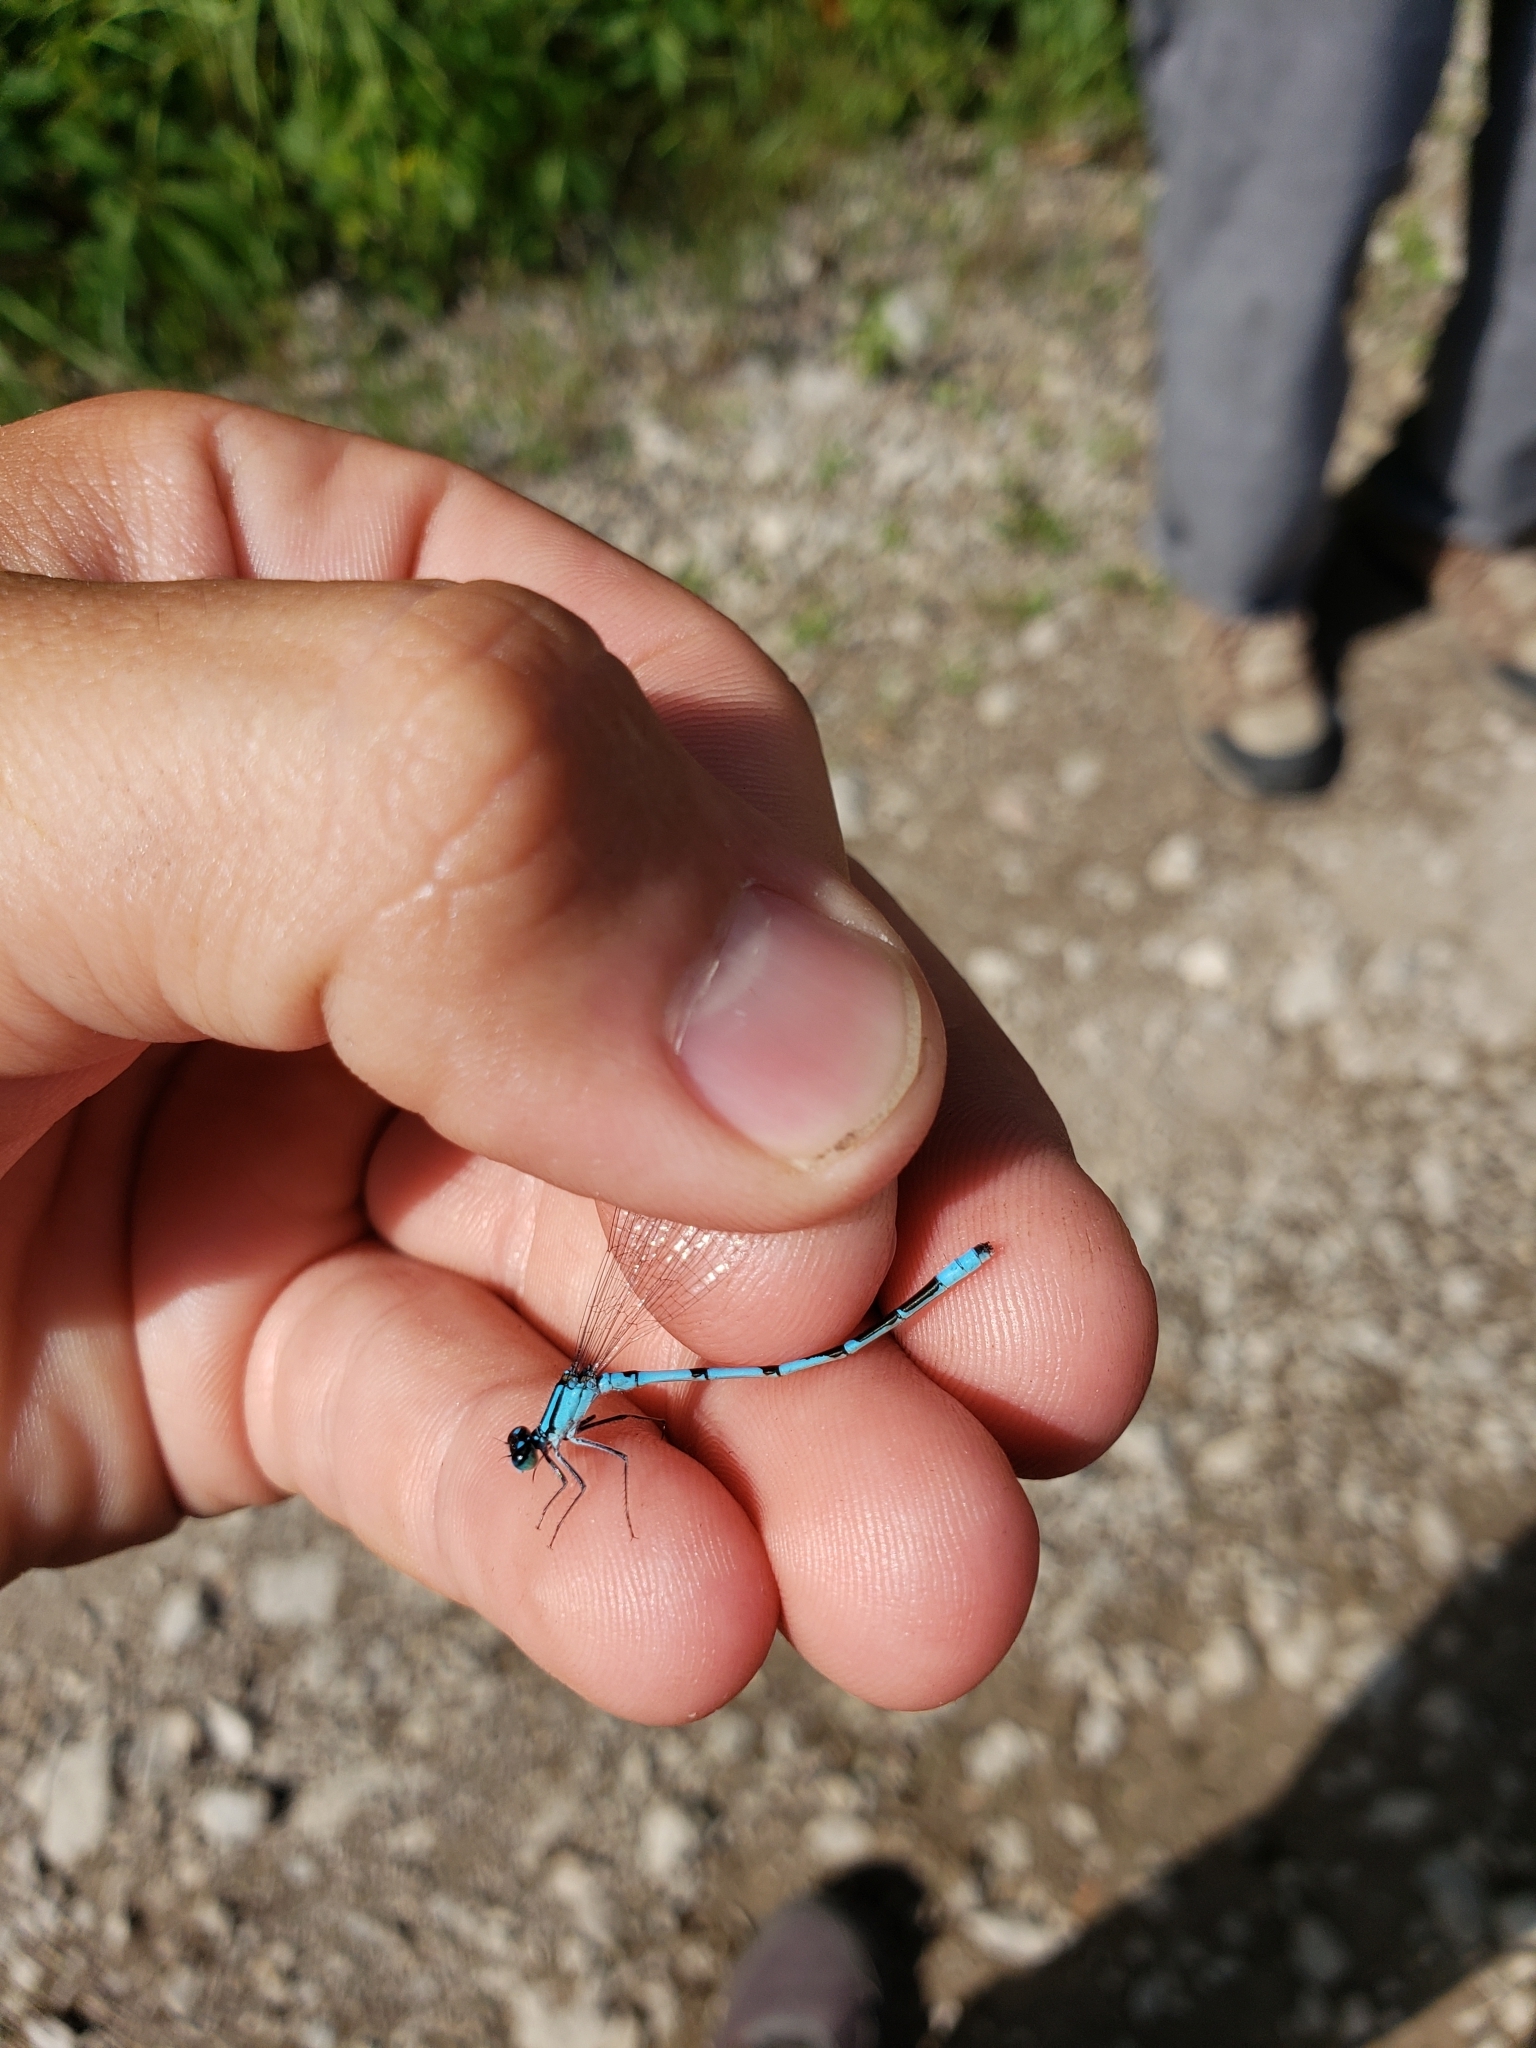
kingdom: Animalia
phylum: Arthropoda
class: Insecta
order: Odonata
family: Coenagrionidae
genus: Enallagma
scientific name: Enallagma ebrium
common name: Marsh bluet
